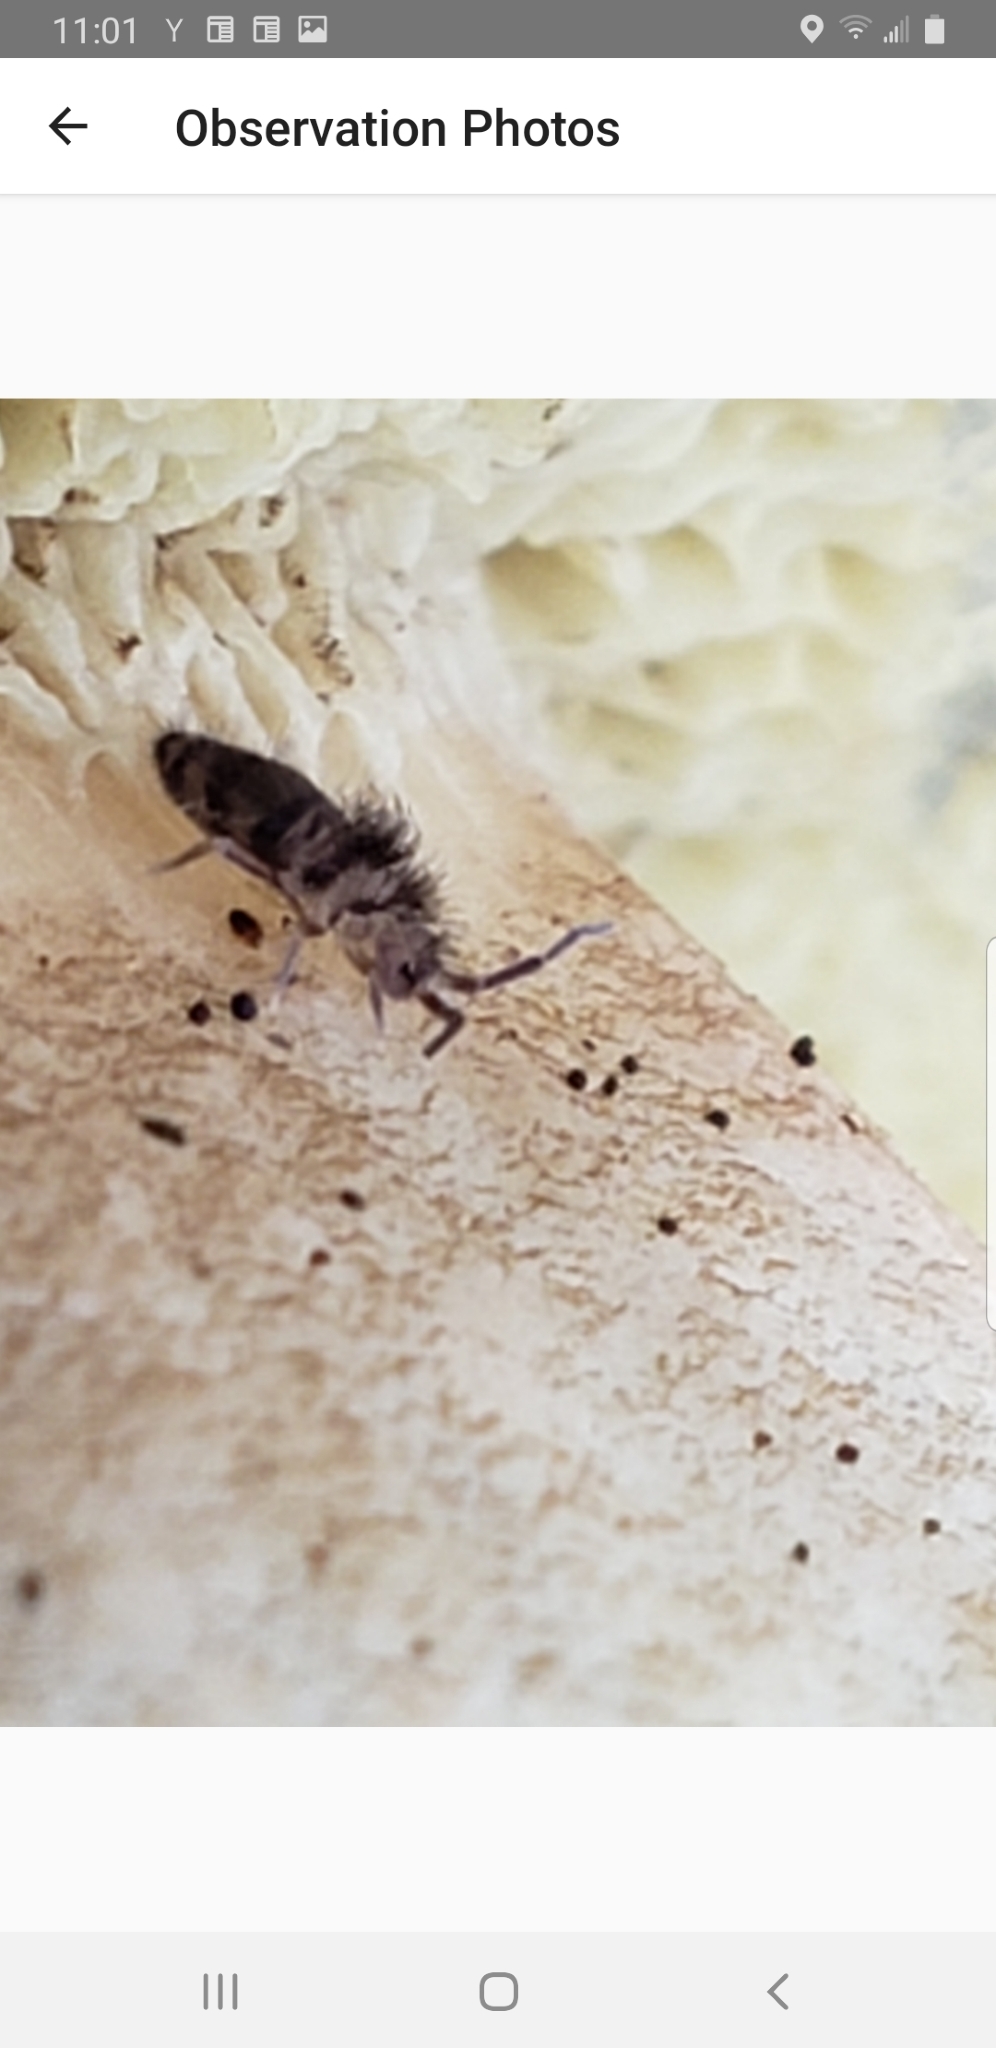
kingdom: Animalia
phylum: Arthropoda
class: Collembola
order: Entomobryomorpha
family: Entomobryidae
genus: Homidia
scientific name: Homidia sauteri
